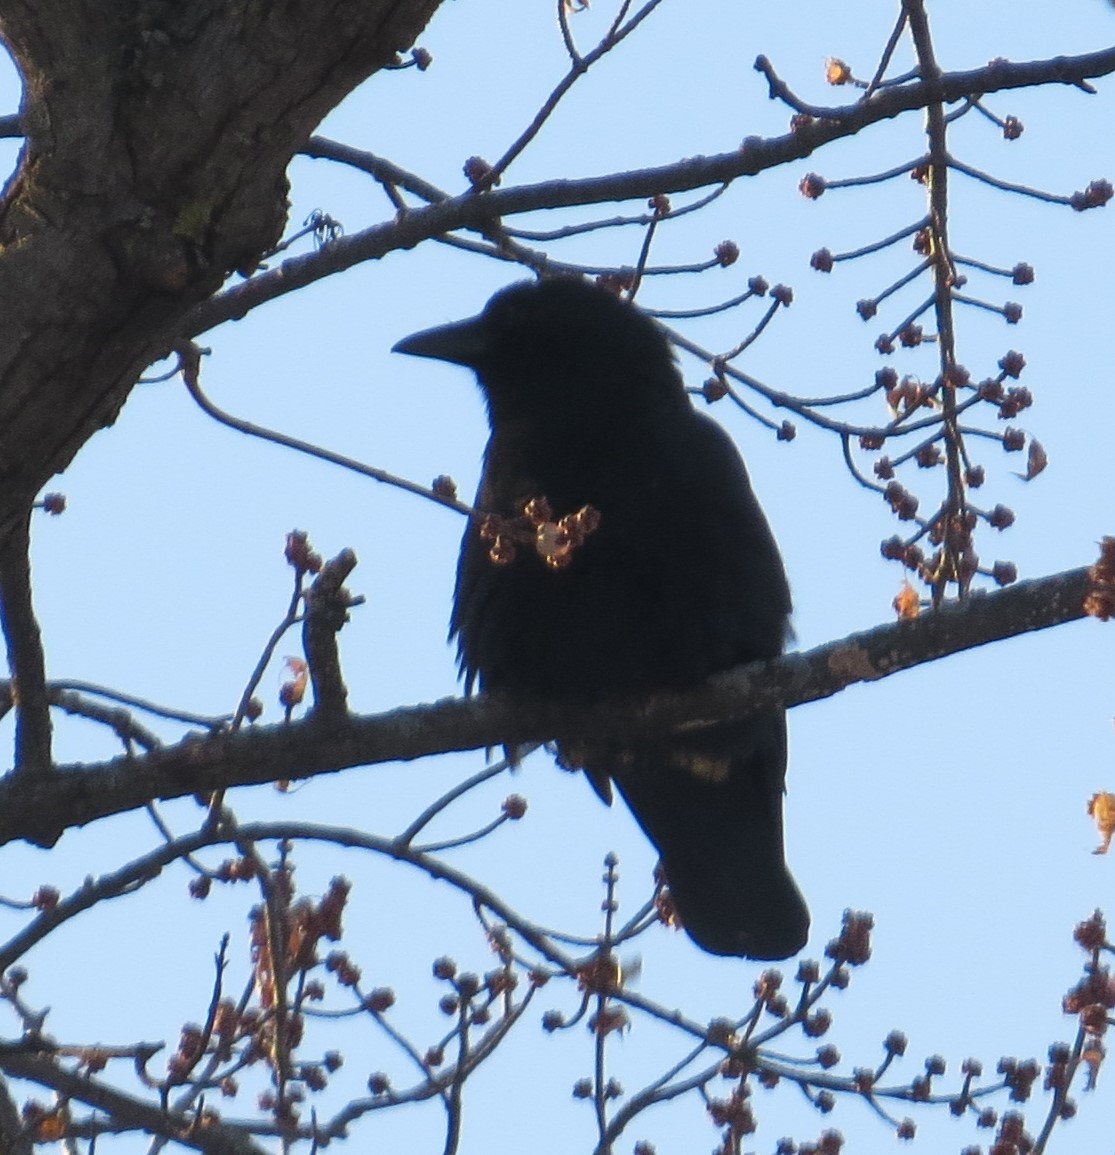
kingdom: Animalia
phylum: Chordata
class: Aves
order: Passeriformes
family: Corvidae
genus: Corvus
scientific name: Corvus brachyrhynchos
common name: American crow
